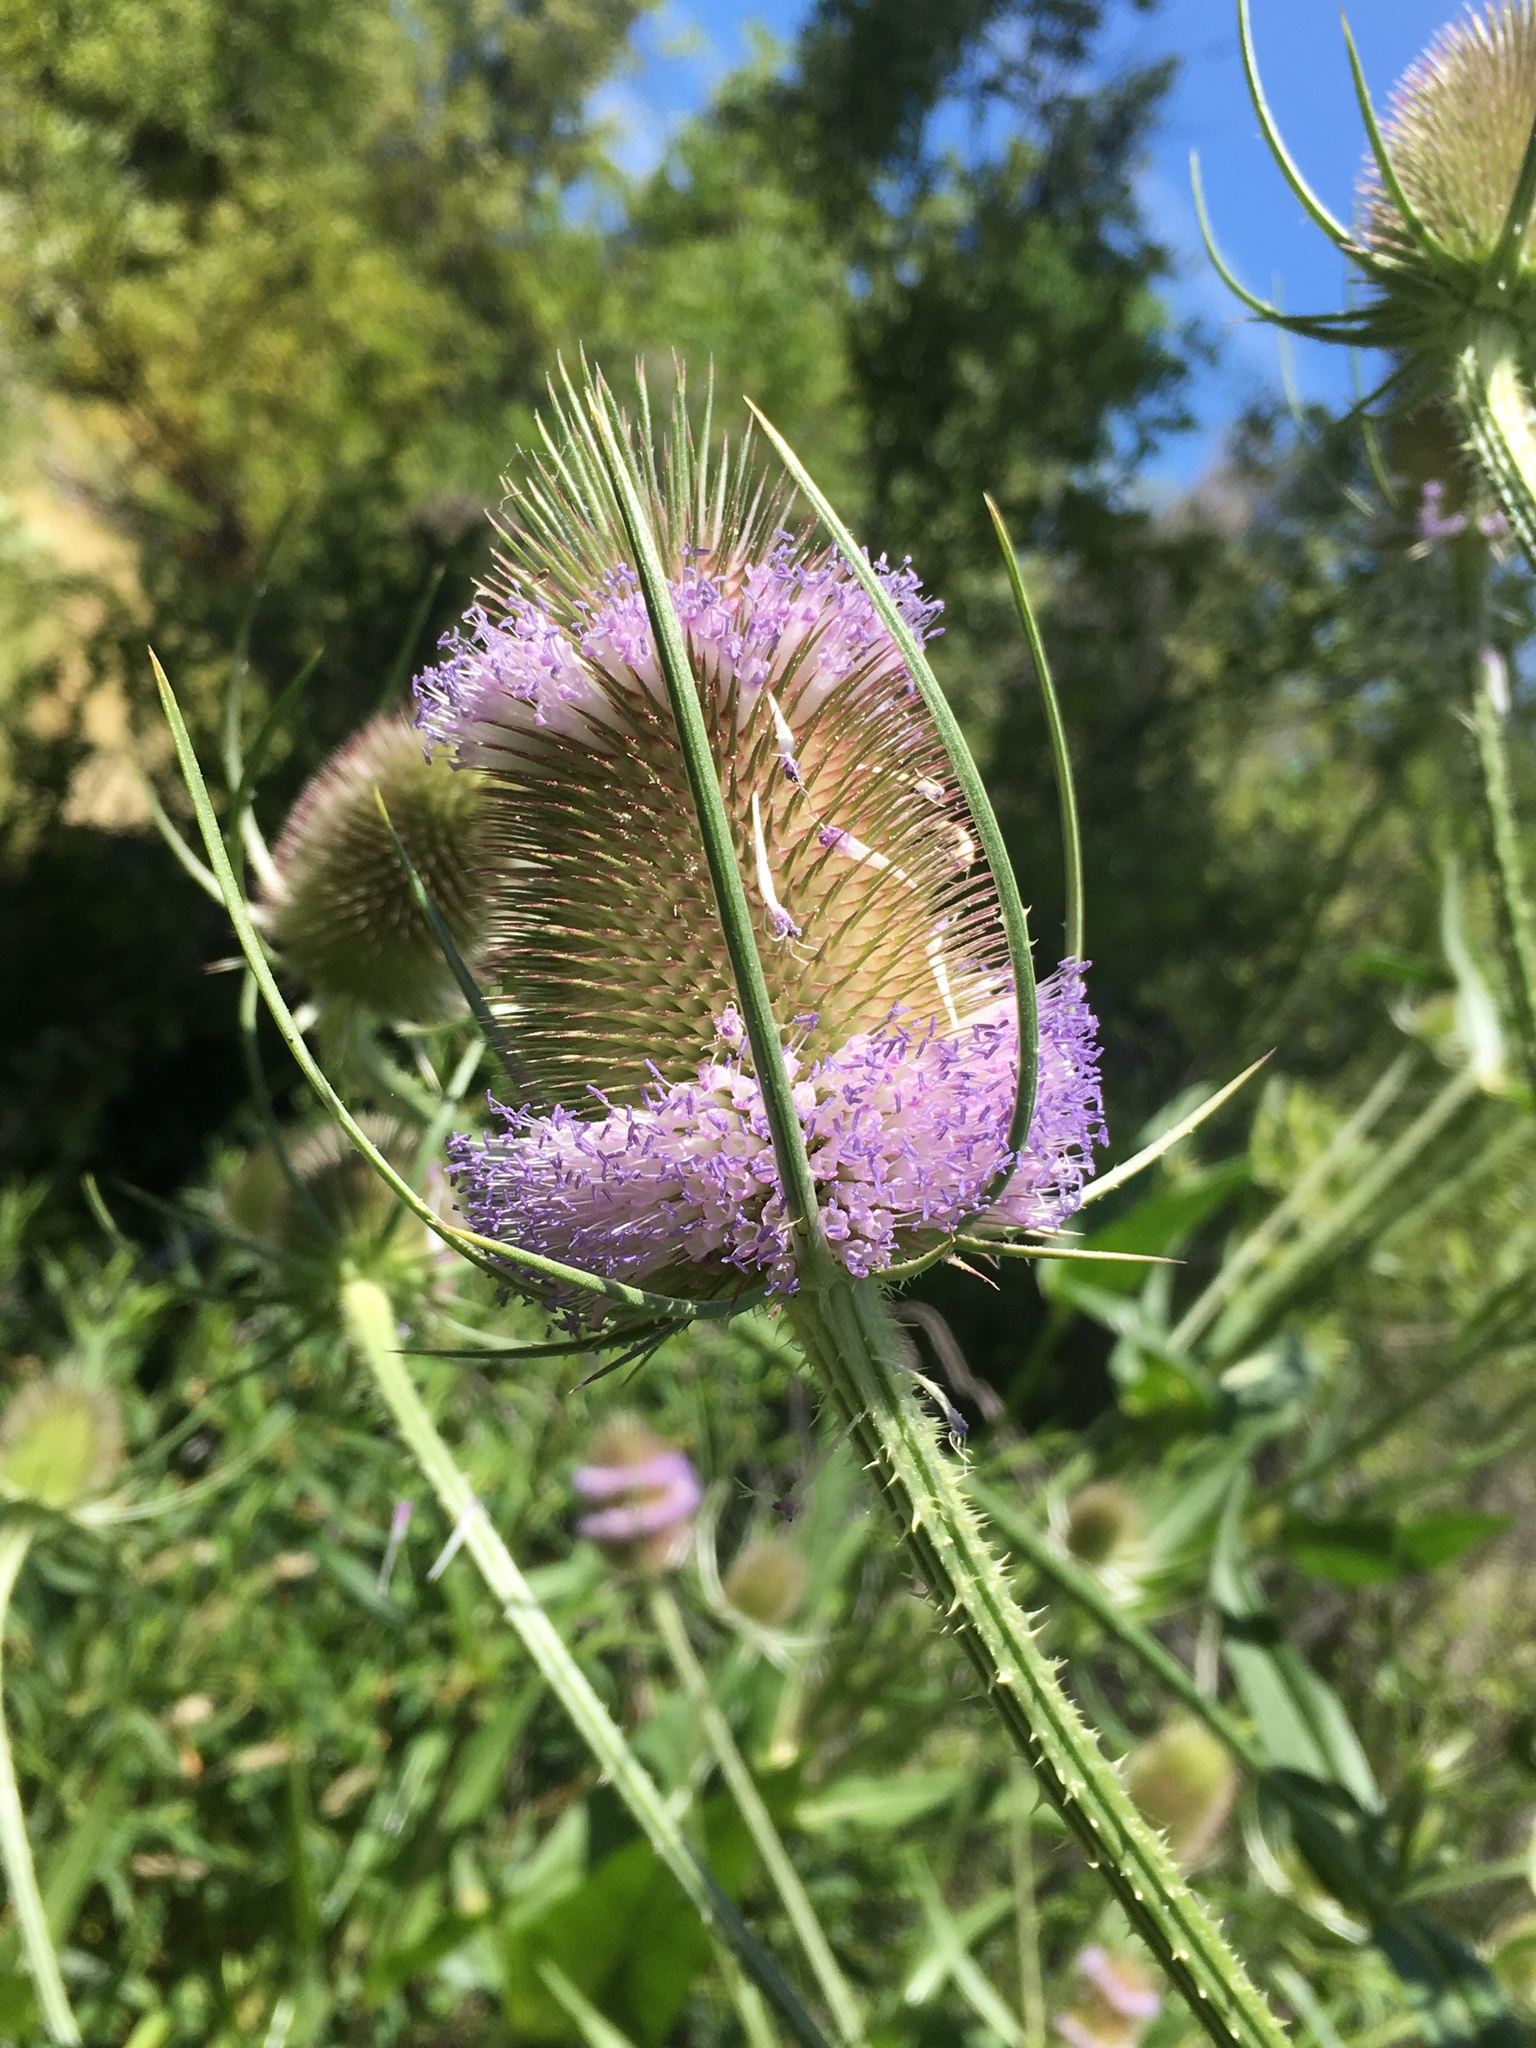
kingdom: Plantae
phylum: Tracheophyta
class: Magnoliopsida
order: Dipsacales
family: Caprifoliaceae
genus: Dipsacus
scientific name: Dipsacus fullonum
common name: Teasel
